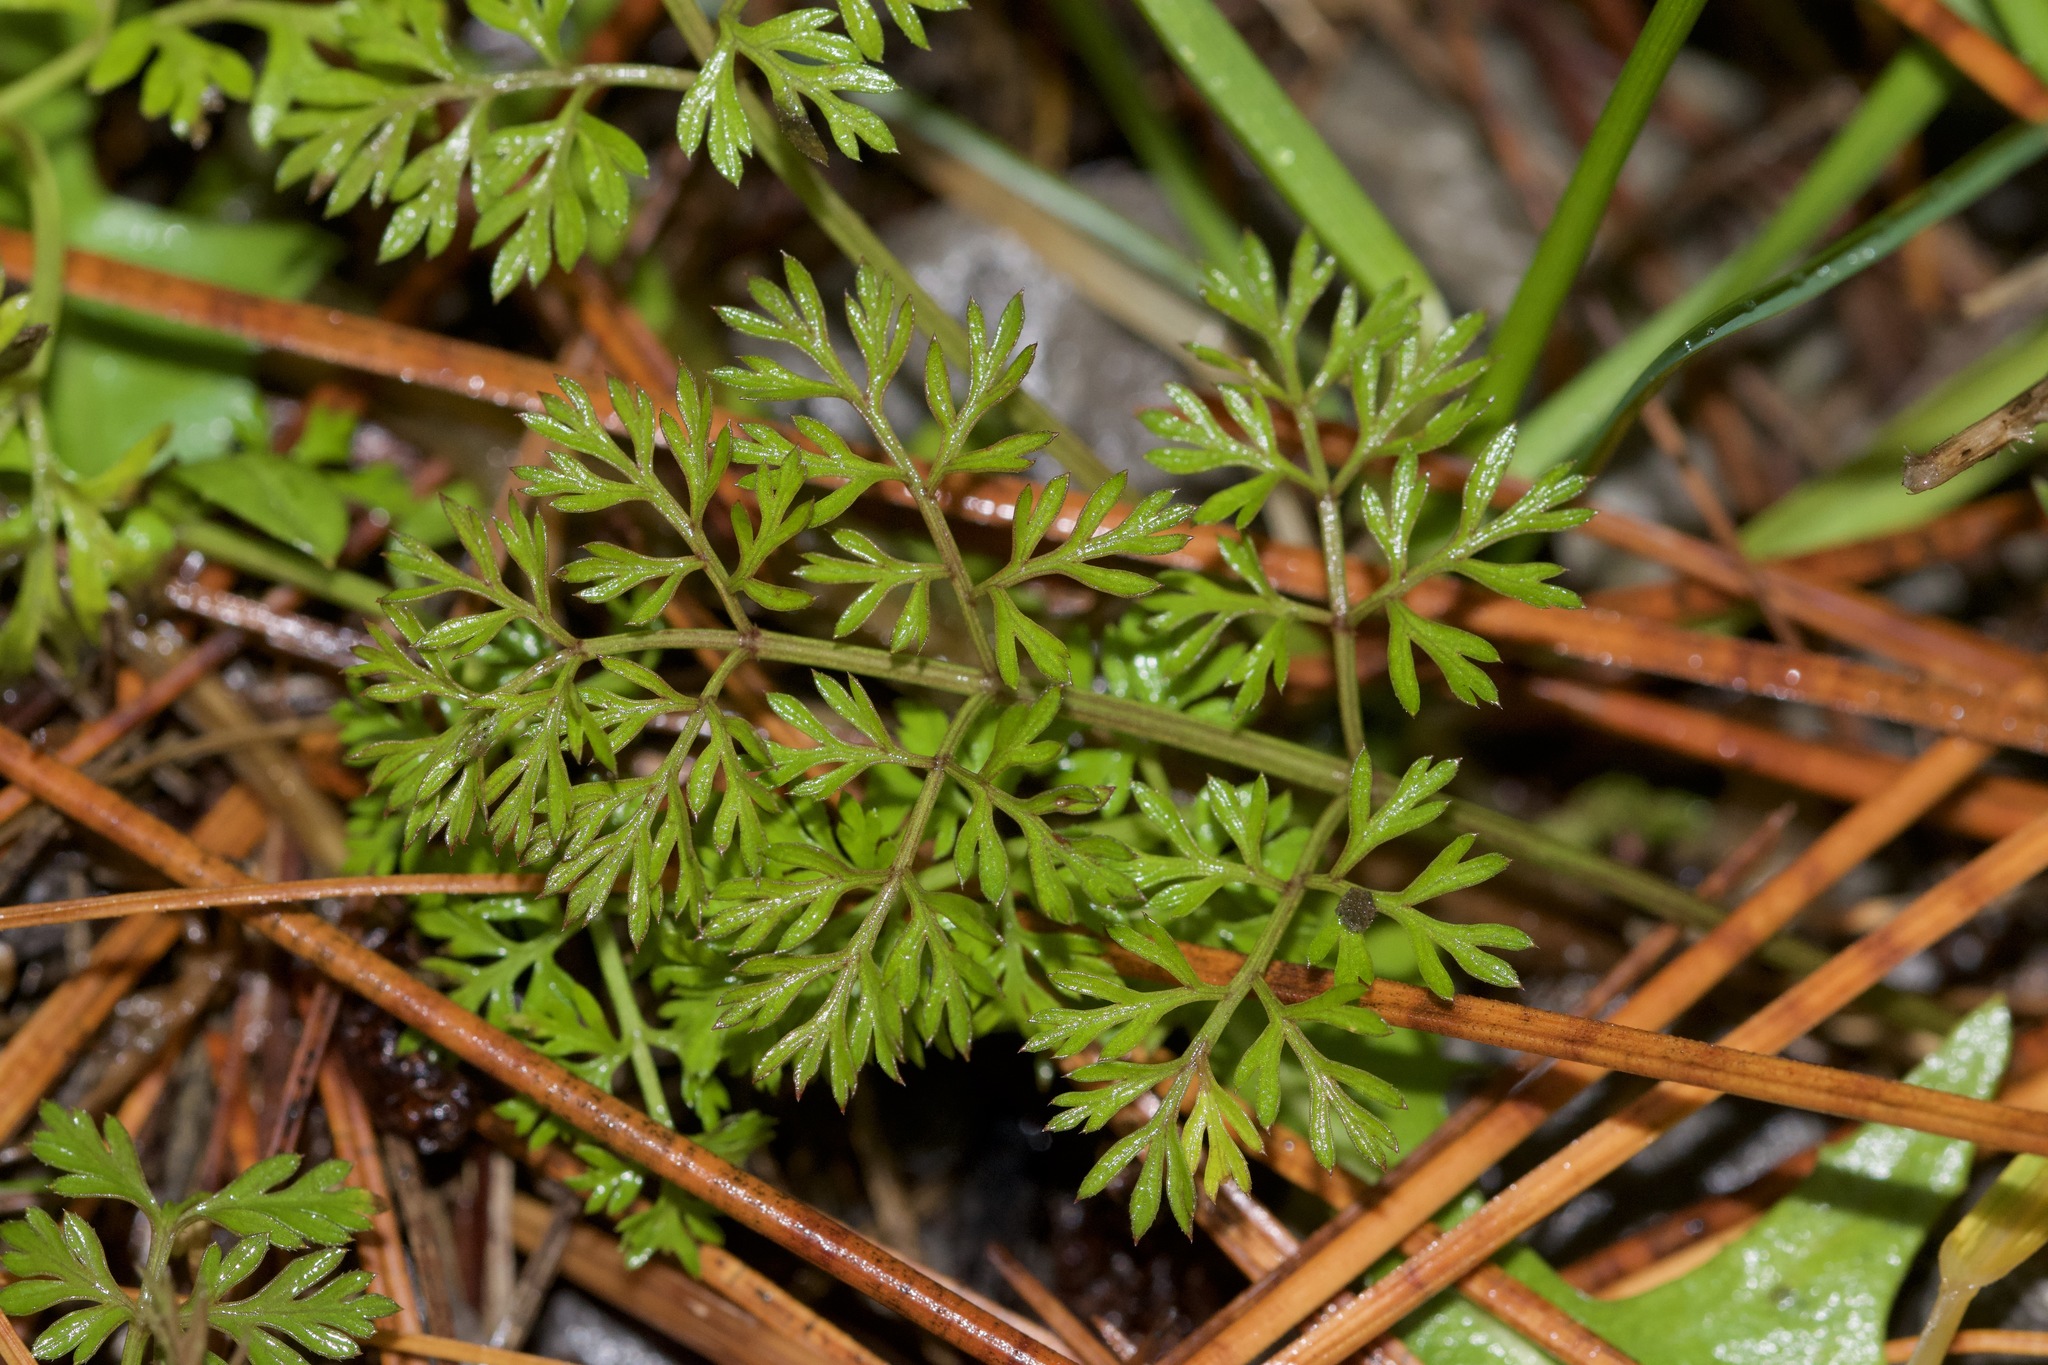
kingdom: Plantae
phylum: Tracheophyta
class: Magnoliopsida
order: Apiales
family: Apiaceae
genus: Daucus
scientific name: Daucus carota
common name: Wild carrot
